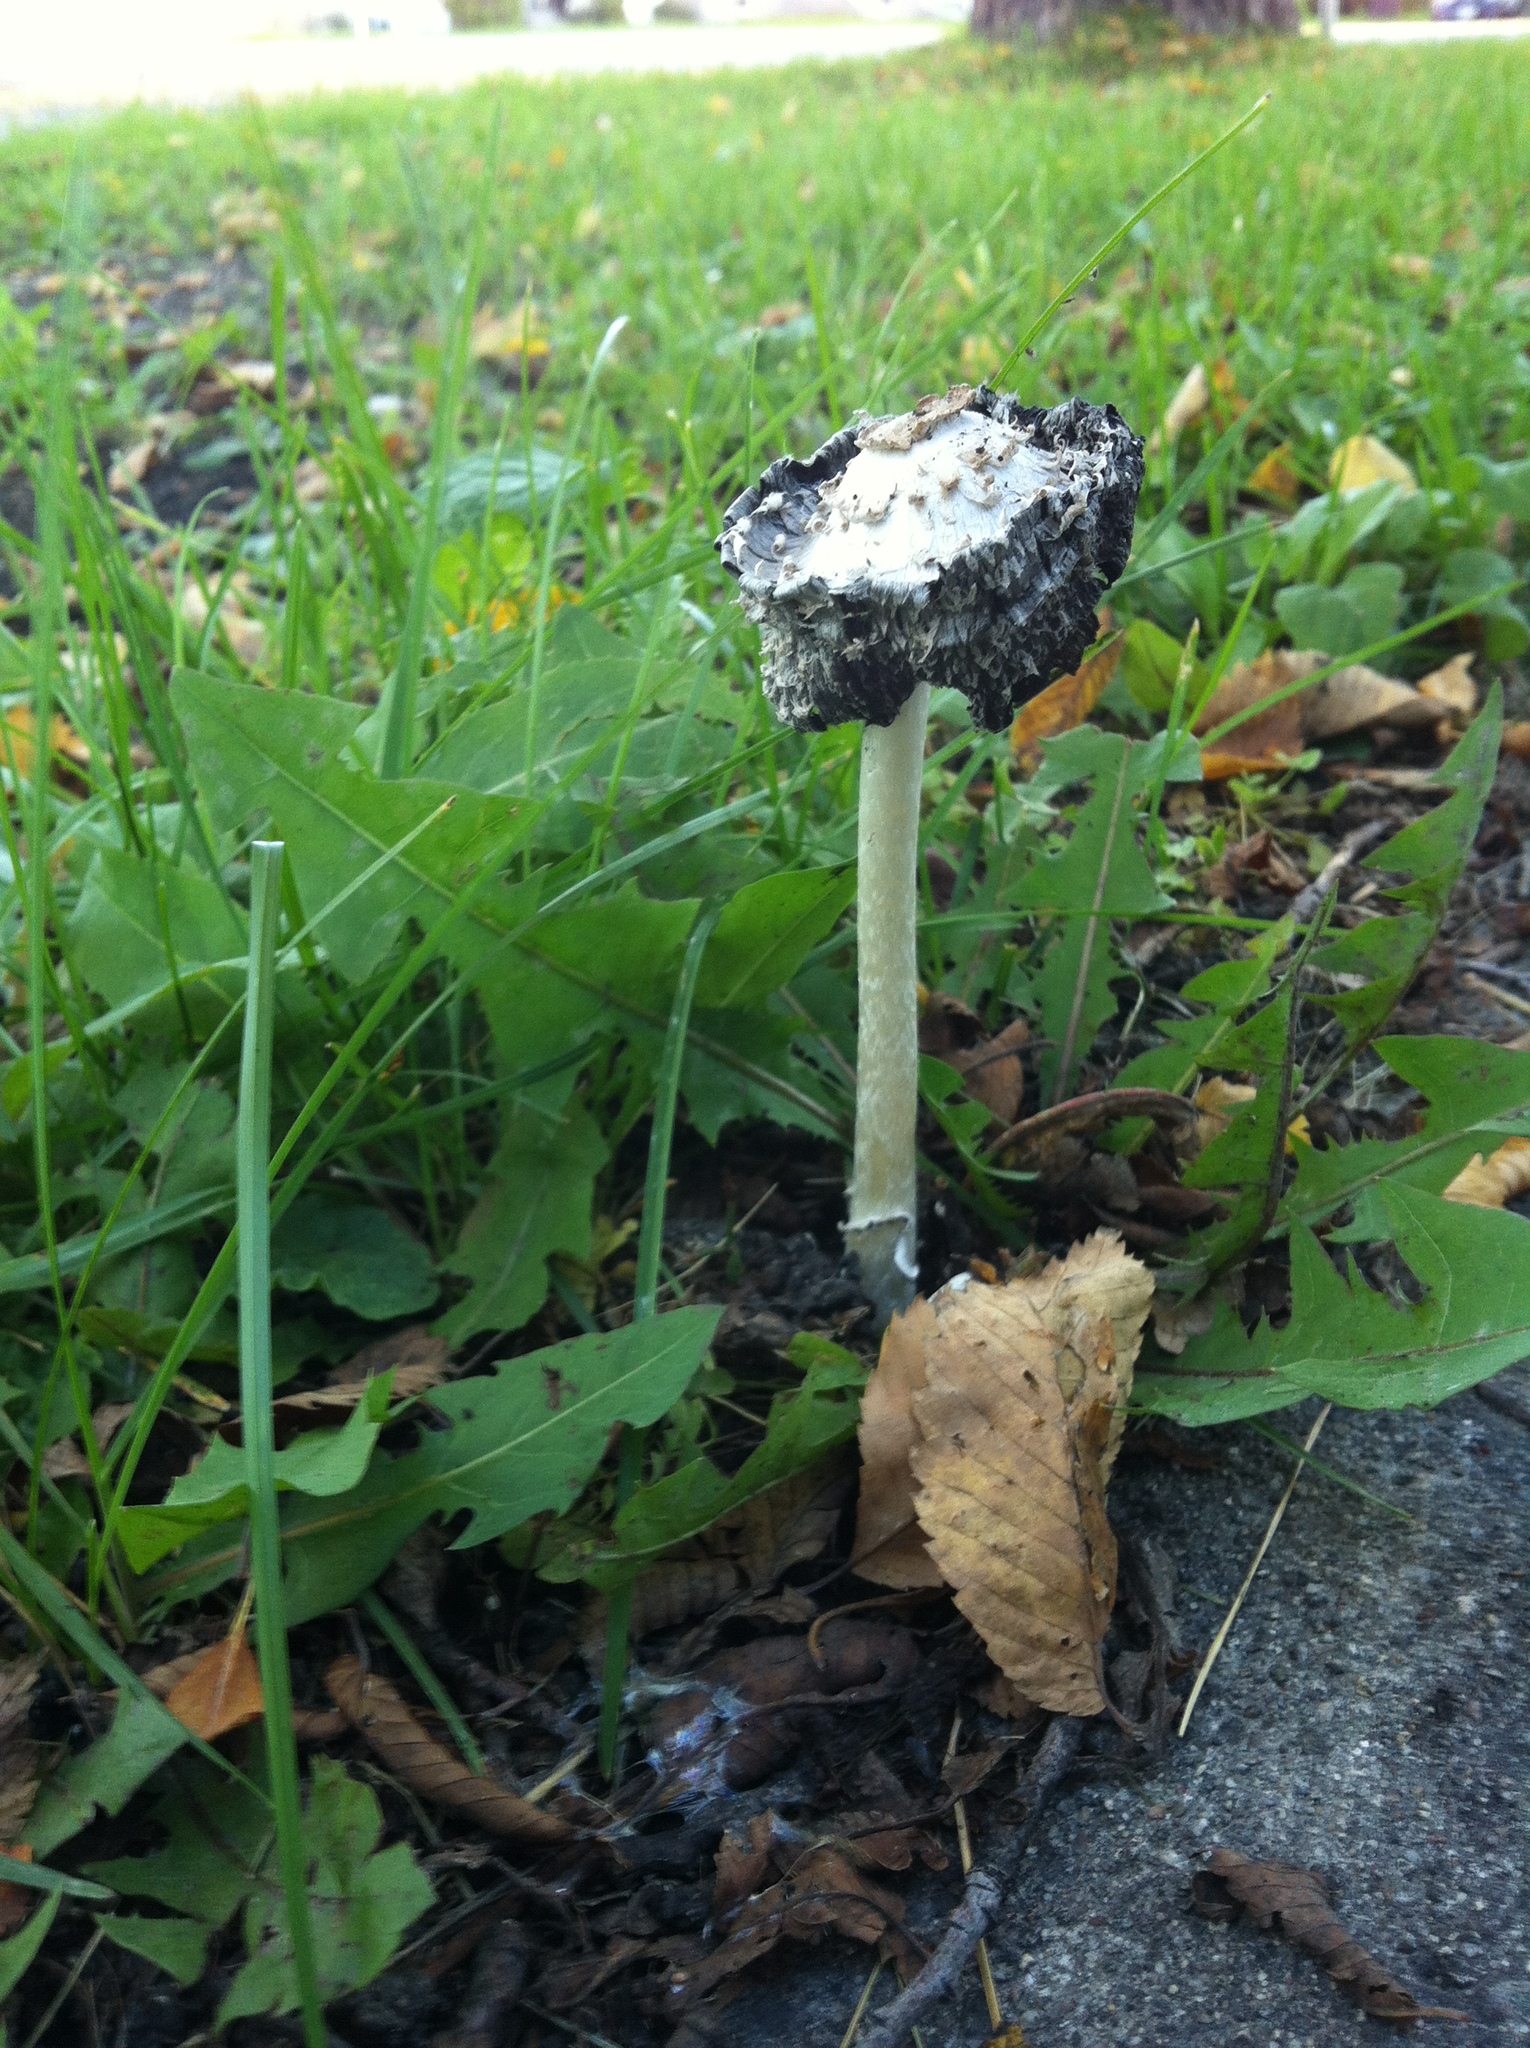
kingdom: Fungi
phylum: Basidiomycota
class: Agaricomycetes
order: Agaricales
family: Agaricaceae
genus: Coprinus
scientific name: Coprinus comatus
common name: Lawyer's wig
